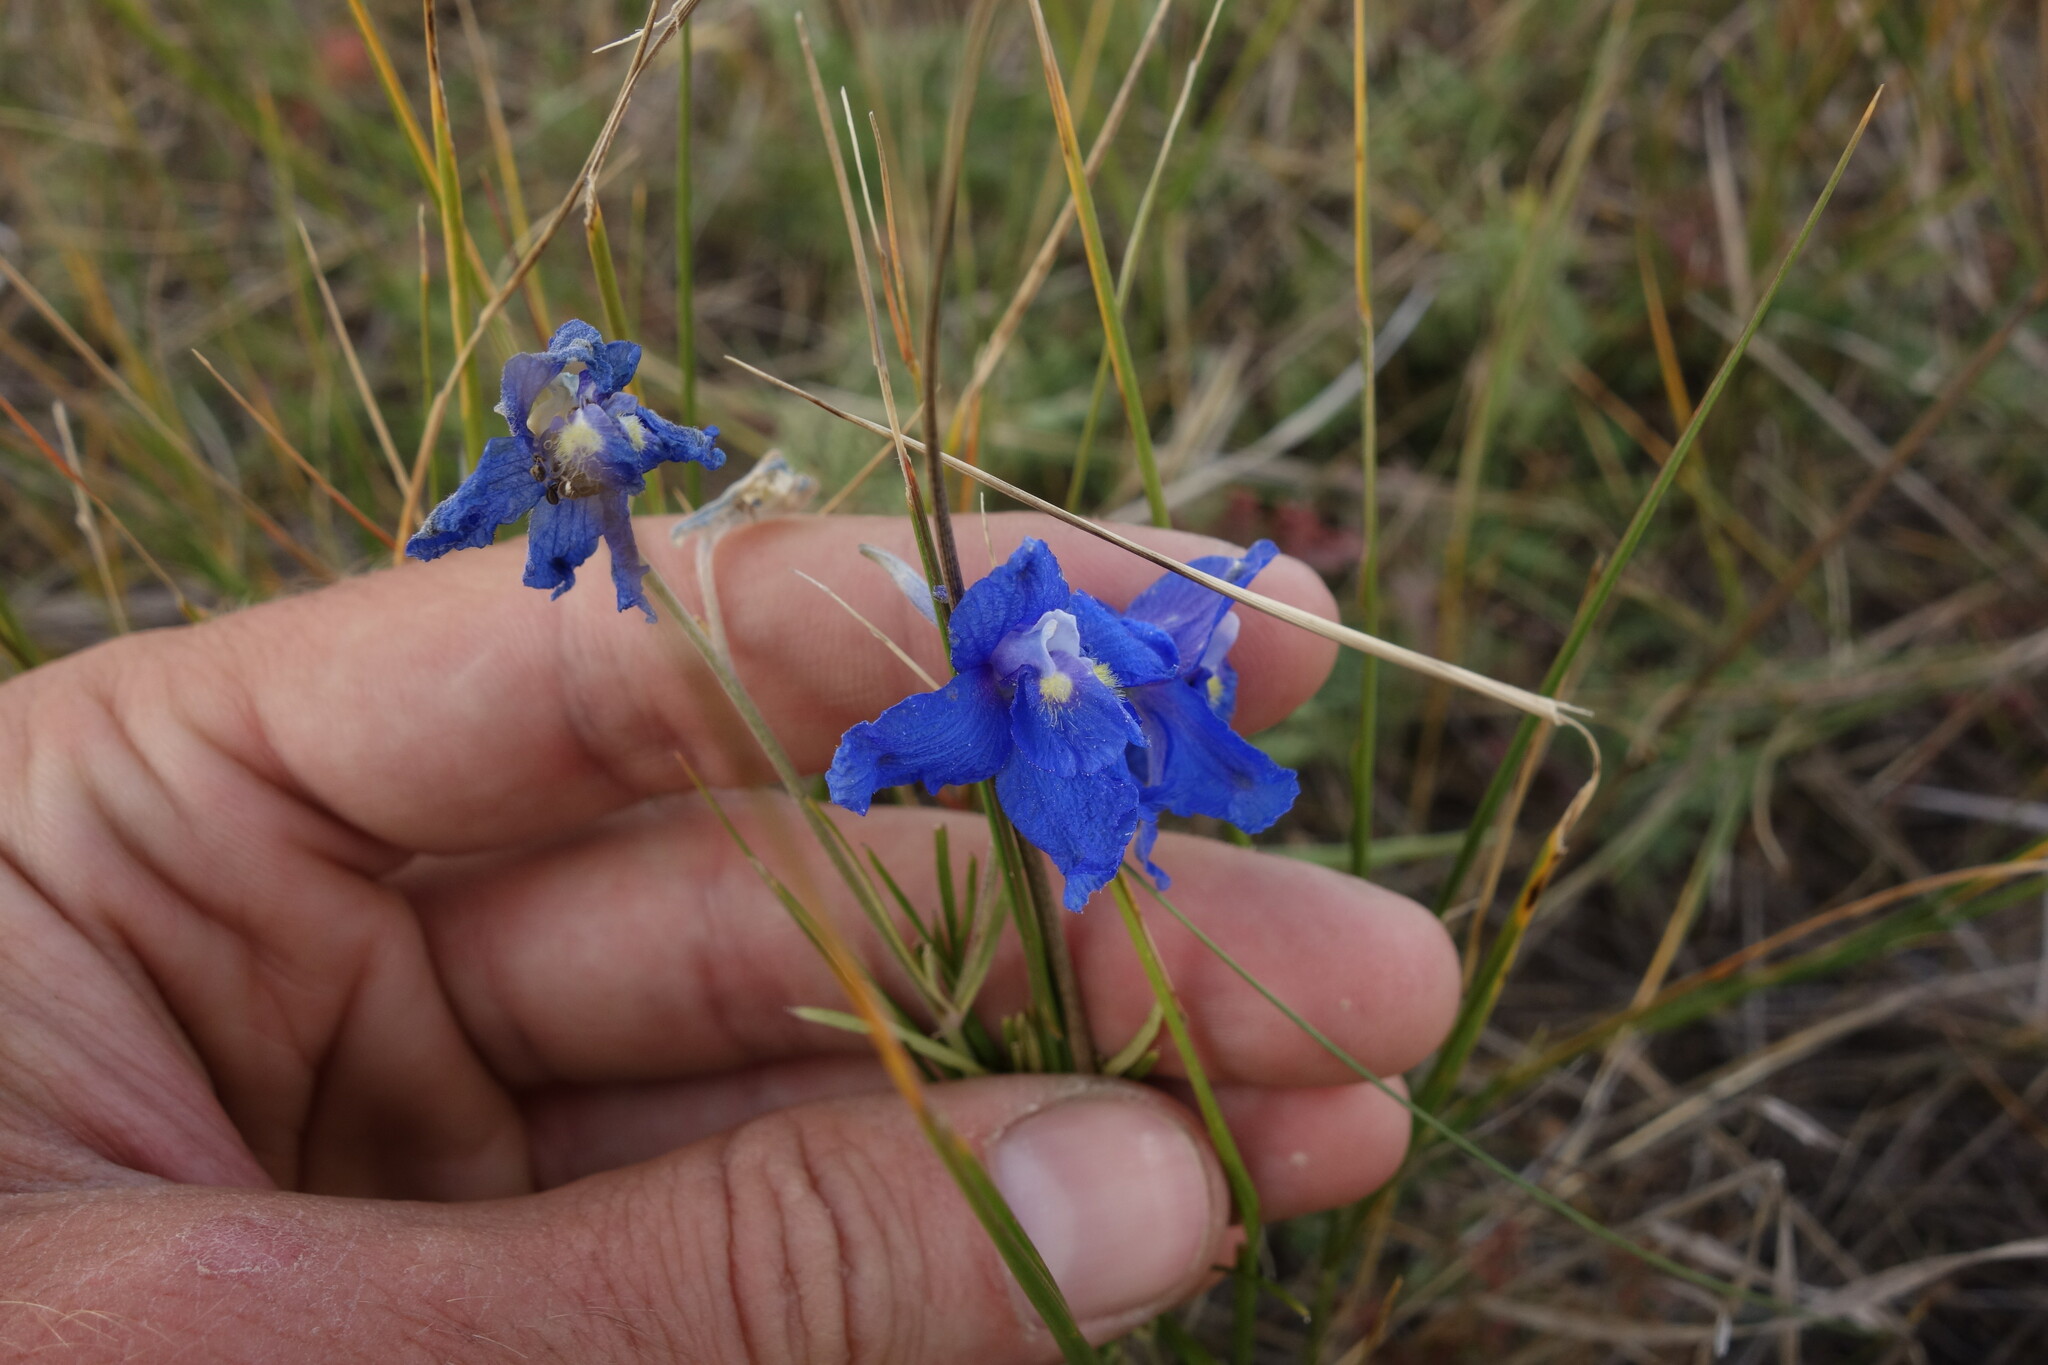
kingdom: Plantae
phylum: Tracheophyta
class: Magnoliopsida
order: Ranunculales
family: Ranunculaceae
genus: Delphinium
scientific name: Delphinium grandiflorum
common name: Siberian larkspur
